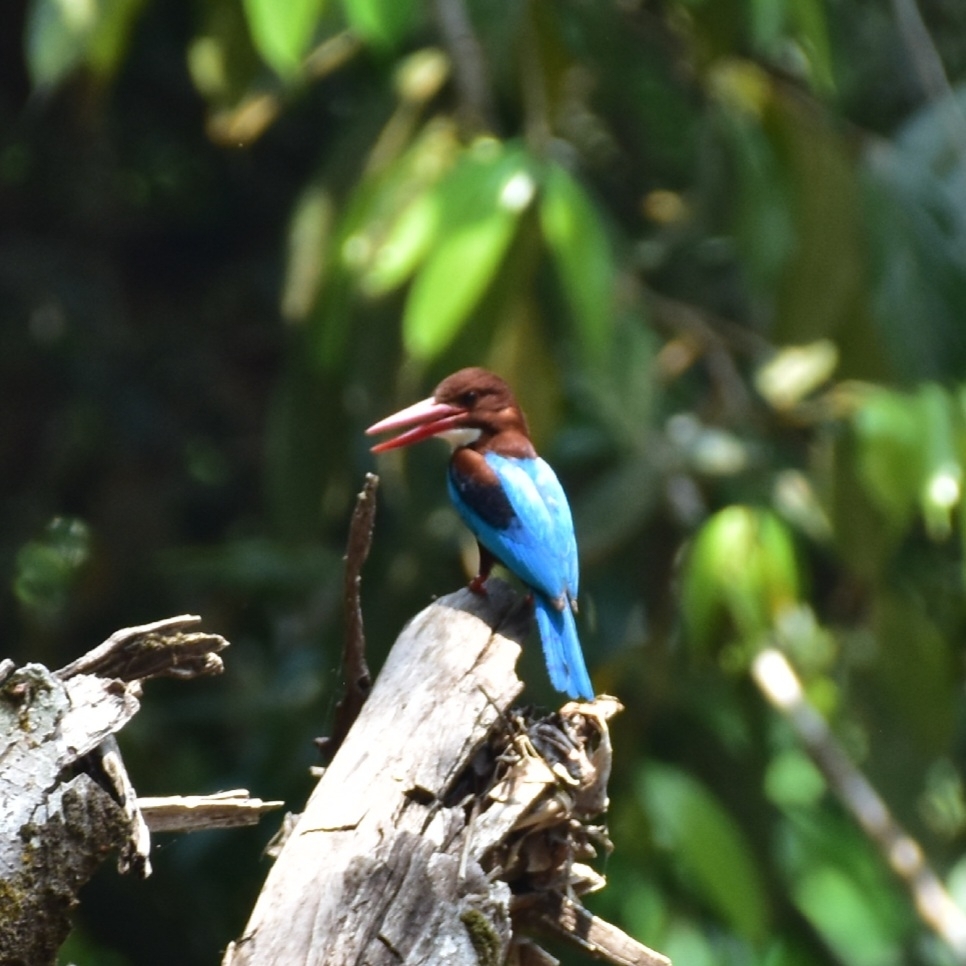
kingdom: Animalia
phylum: Chordata
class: Aves
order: Coraciiformes
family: Alcedinidae
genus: Halcyon
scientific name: Halcyon smyrnensis
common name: White-throated kingfisher
